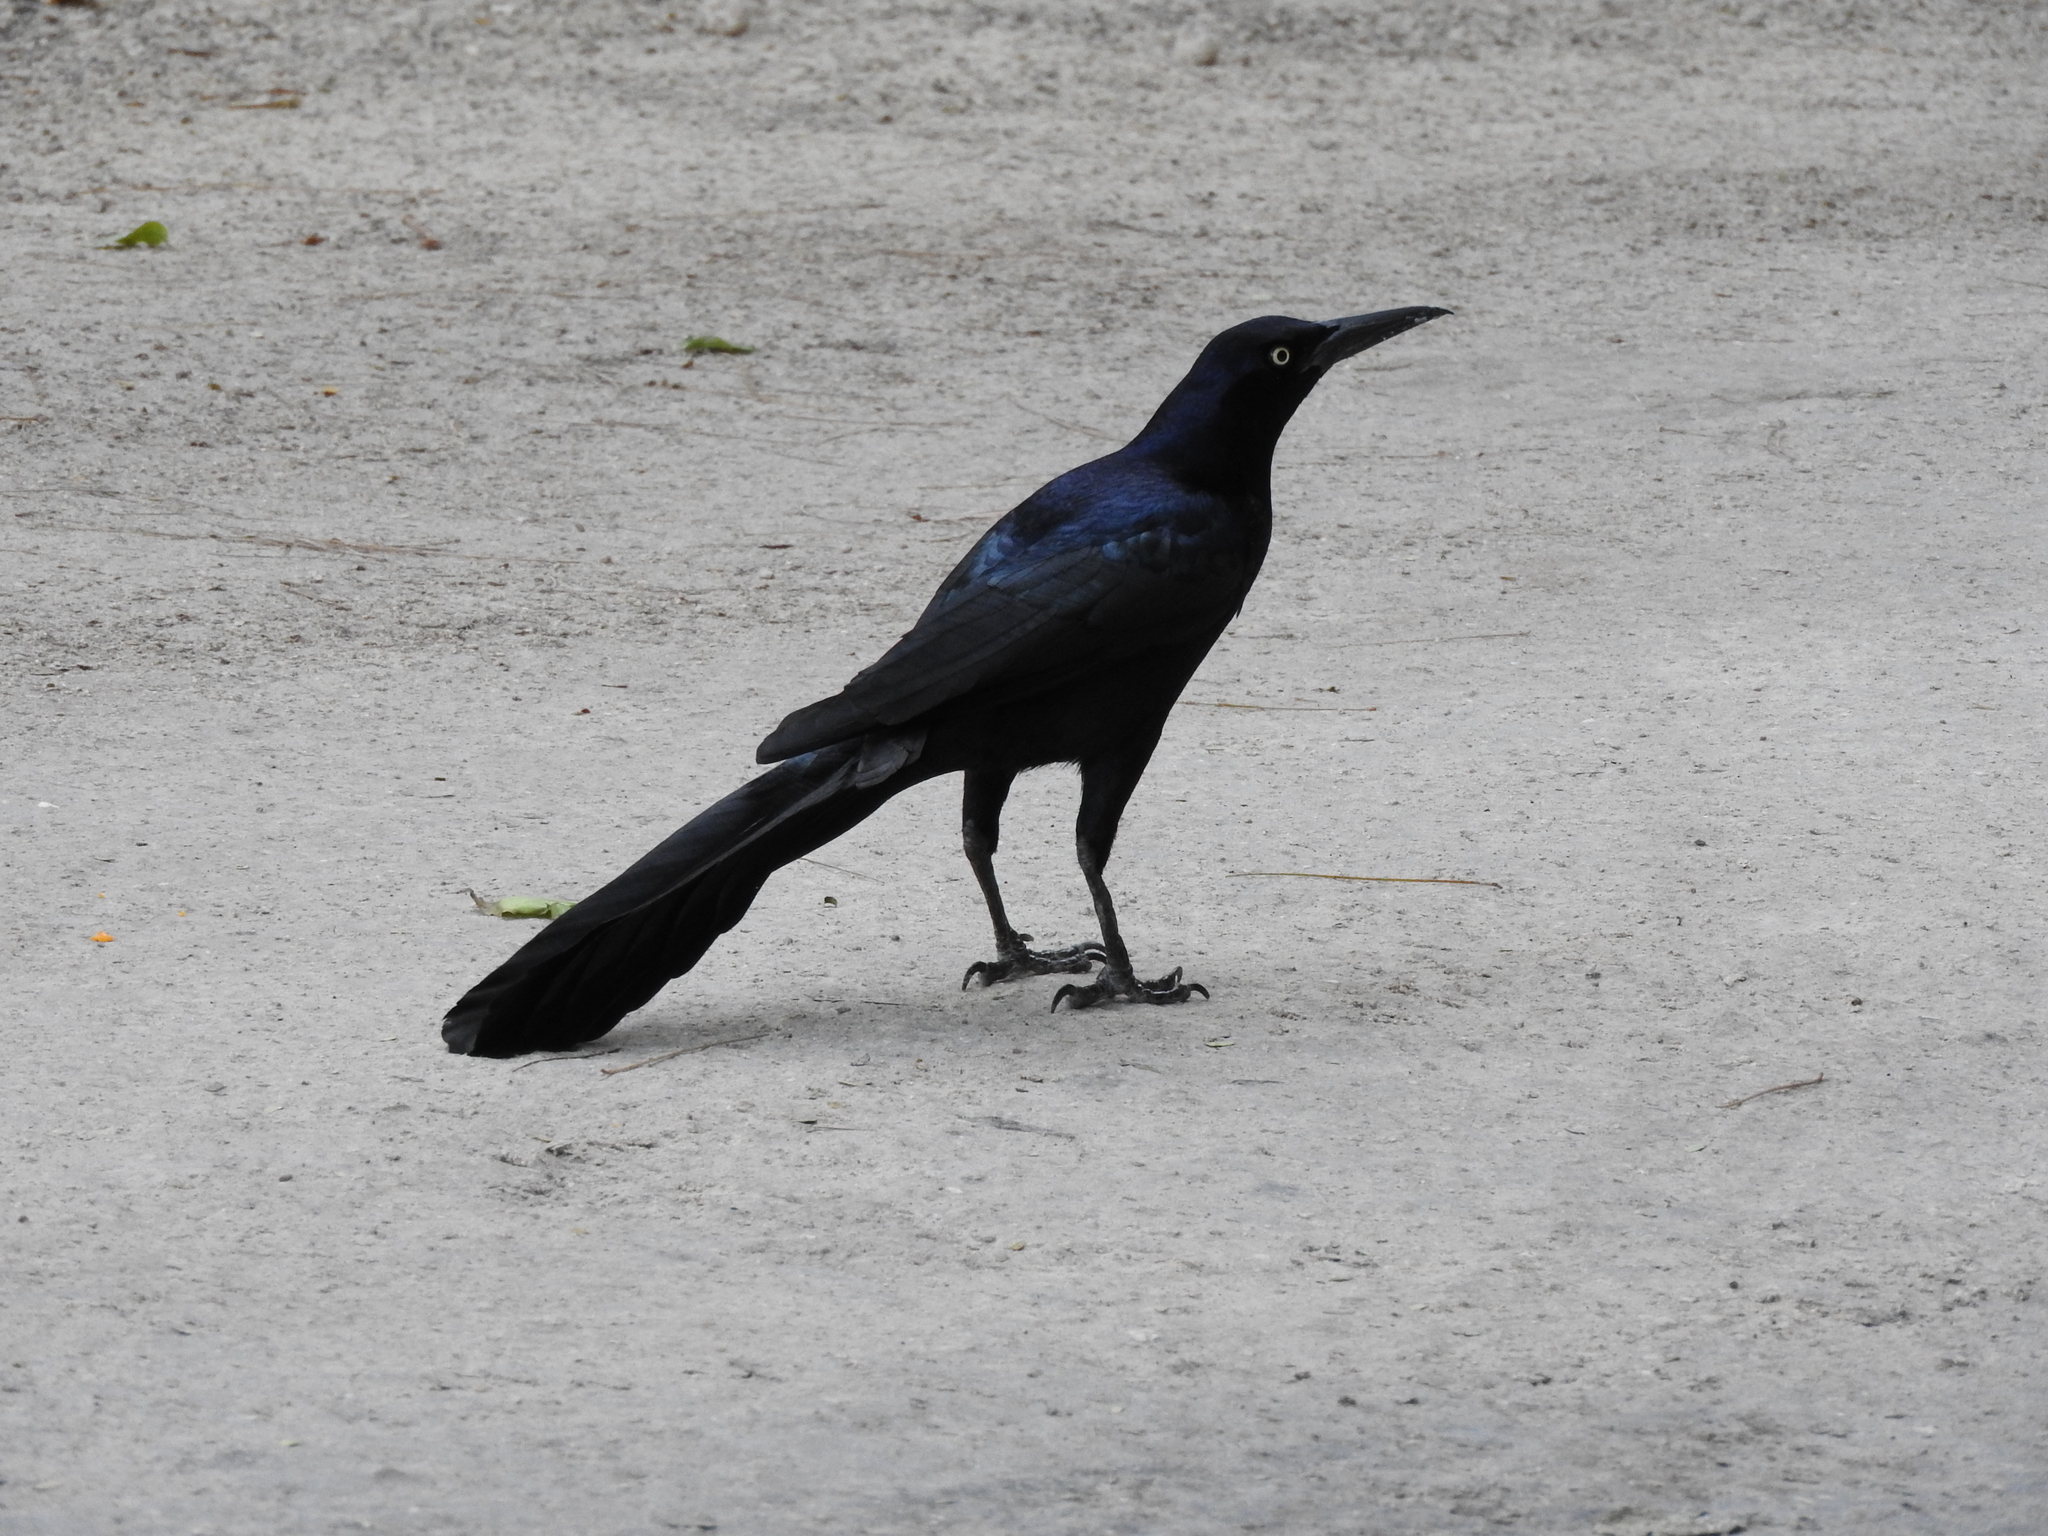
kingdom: Animalia
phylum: Chordata
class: Aves
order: Passeriformes
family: Icteridae
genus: Quiscalus
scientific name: Quiscalus mexicanus
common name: Great-tailed grackle
